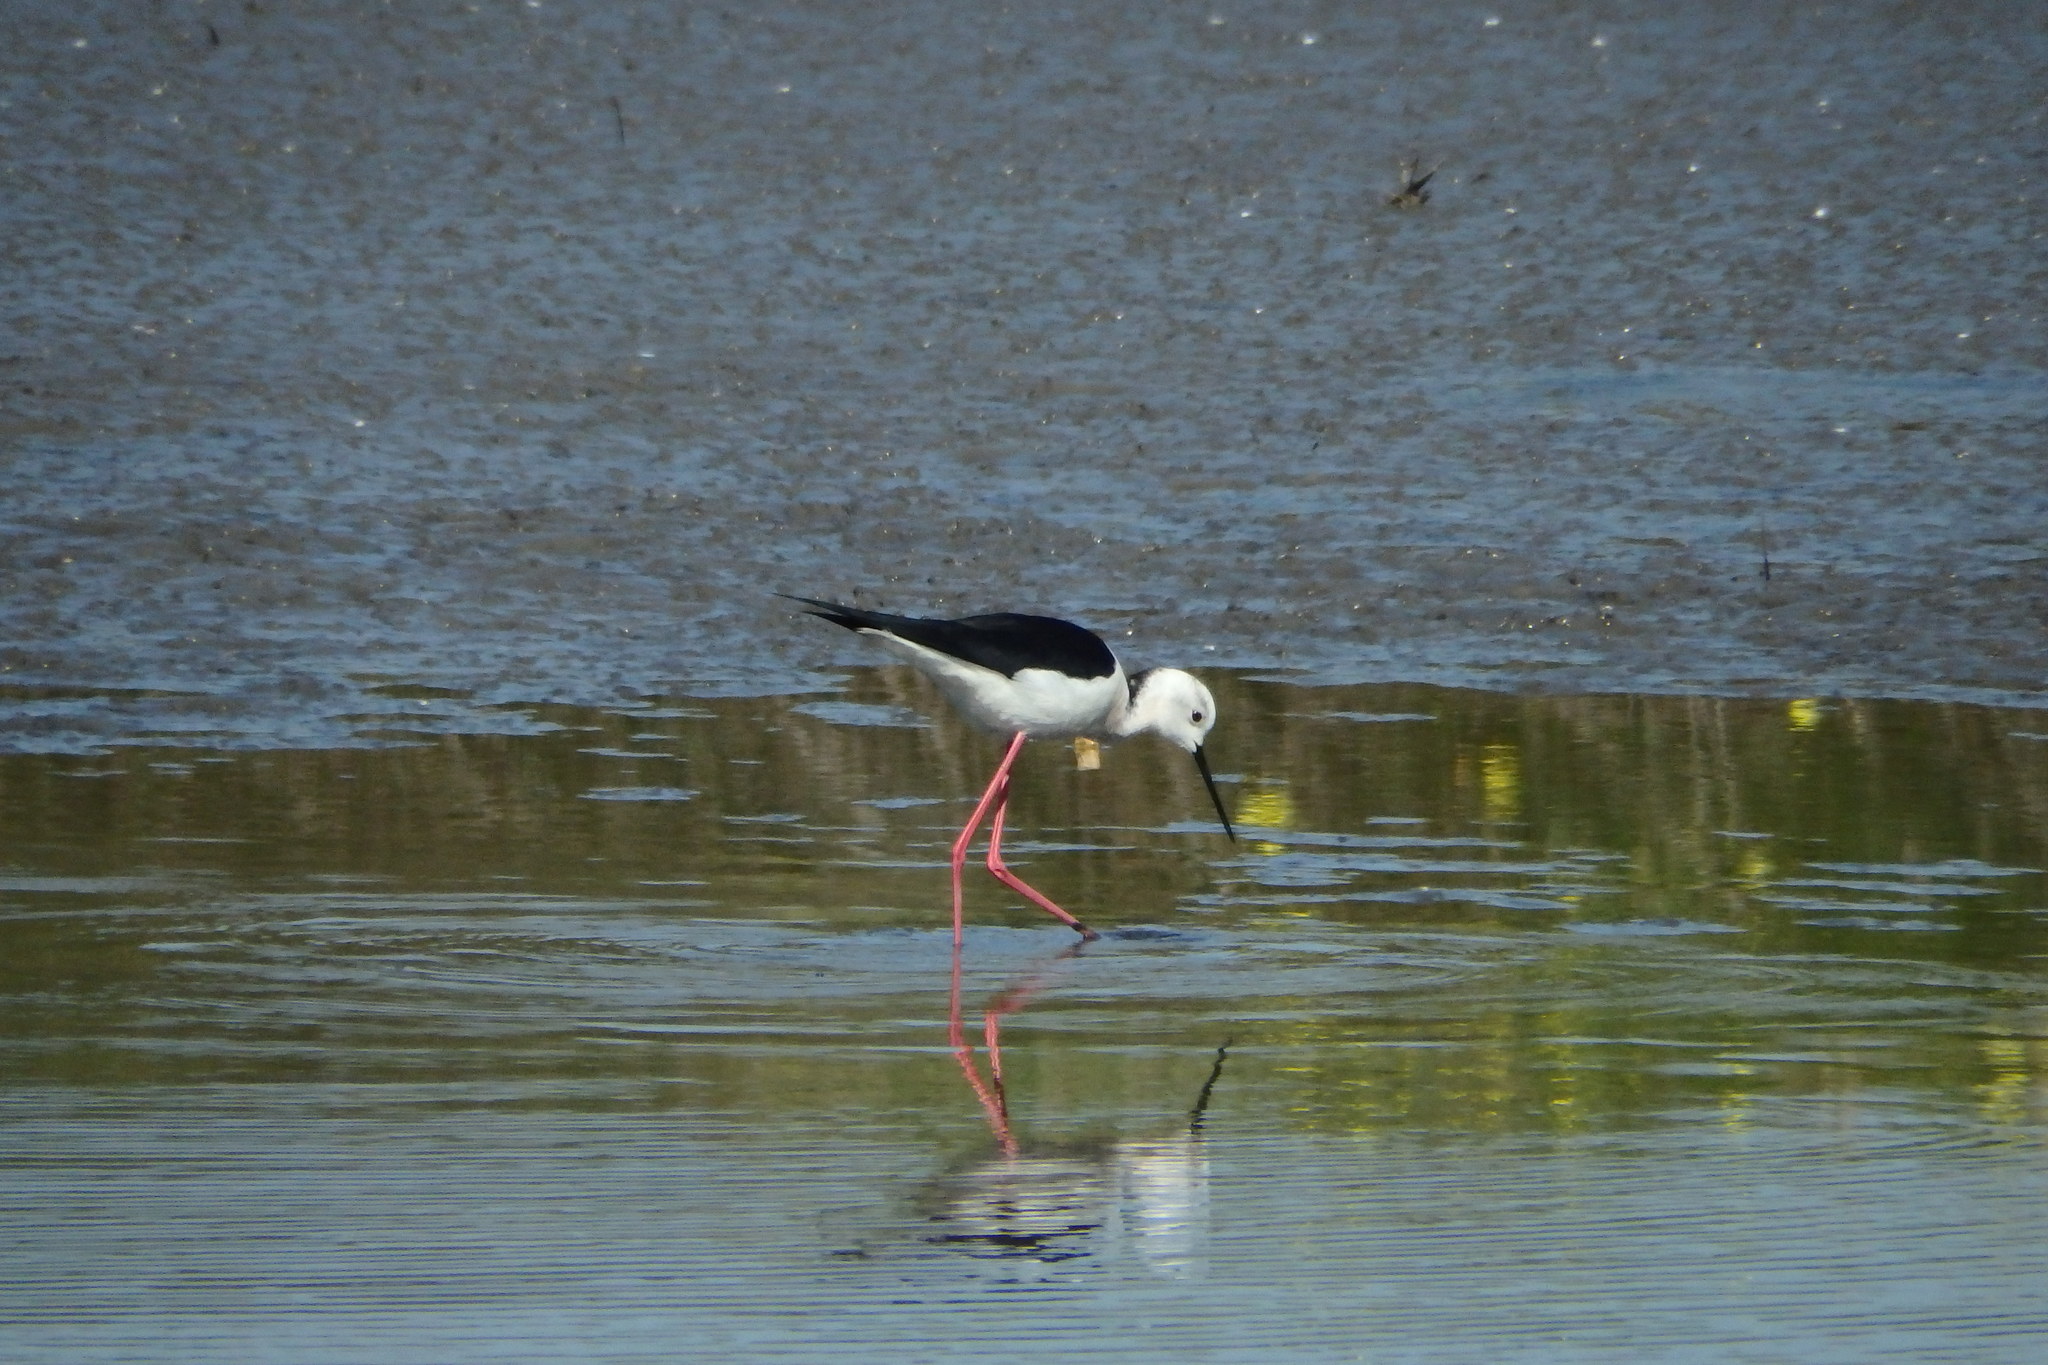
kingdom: Animalia
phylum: Chordata
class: Aves
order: Charadriiformes
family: Recurvirostridae
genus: Himantopus
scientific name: Himantopus himantopus
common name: Black-winged stilt
